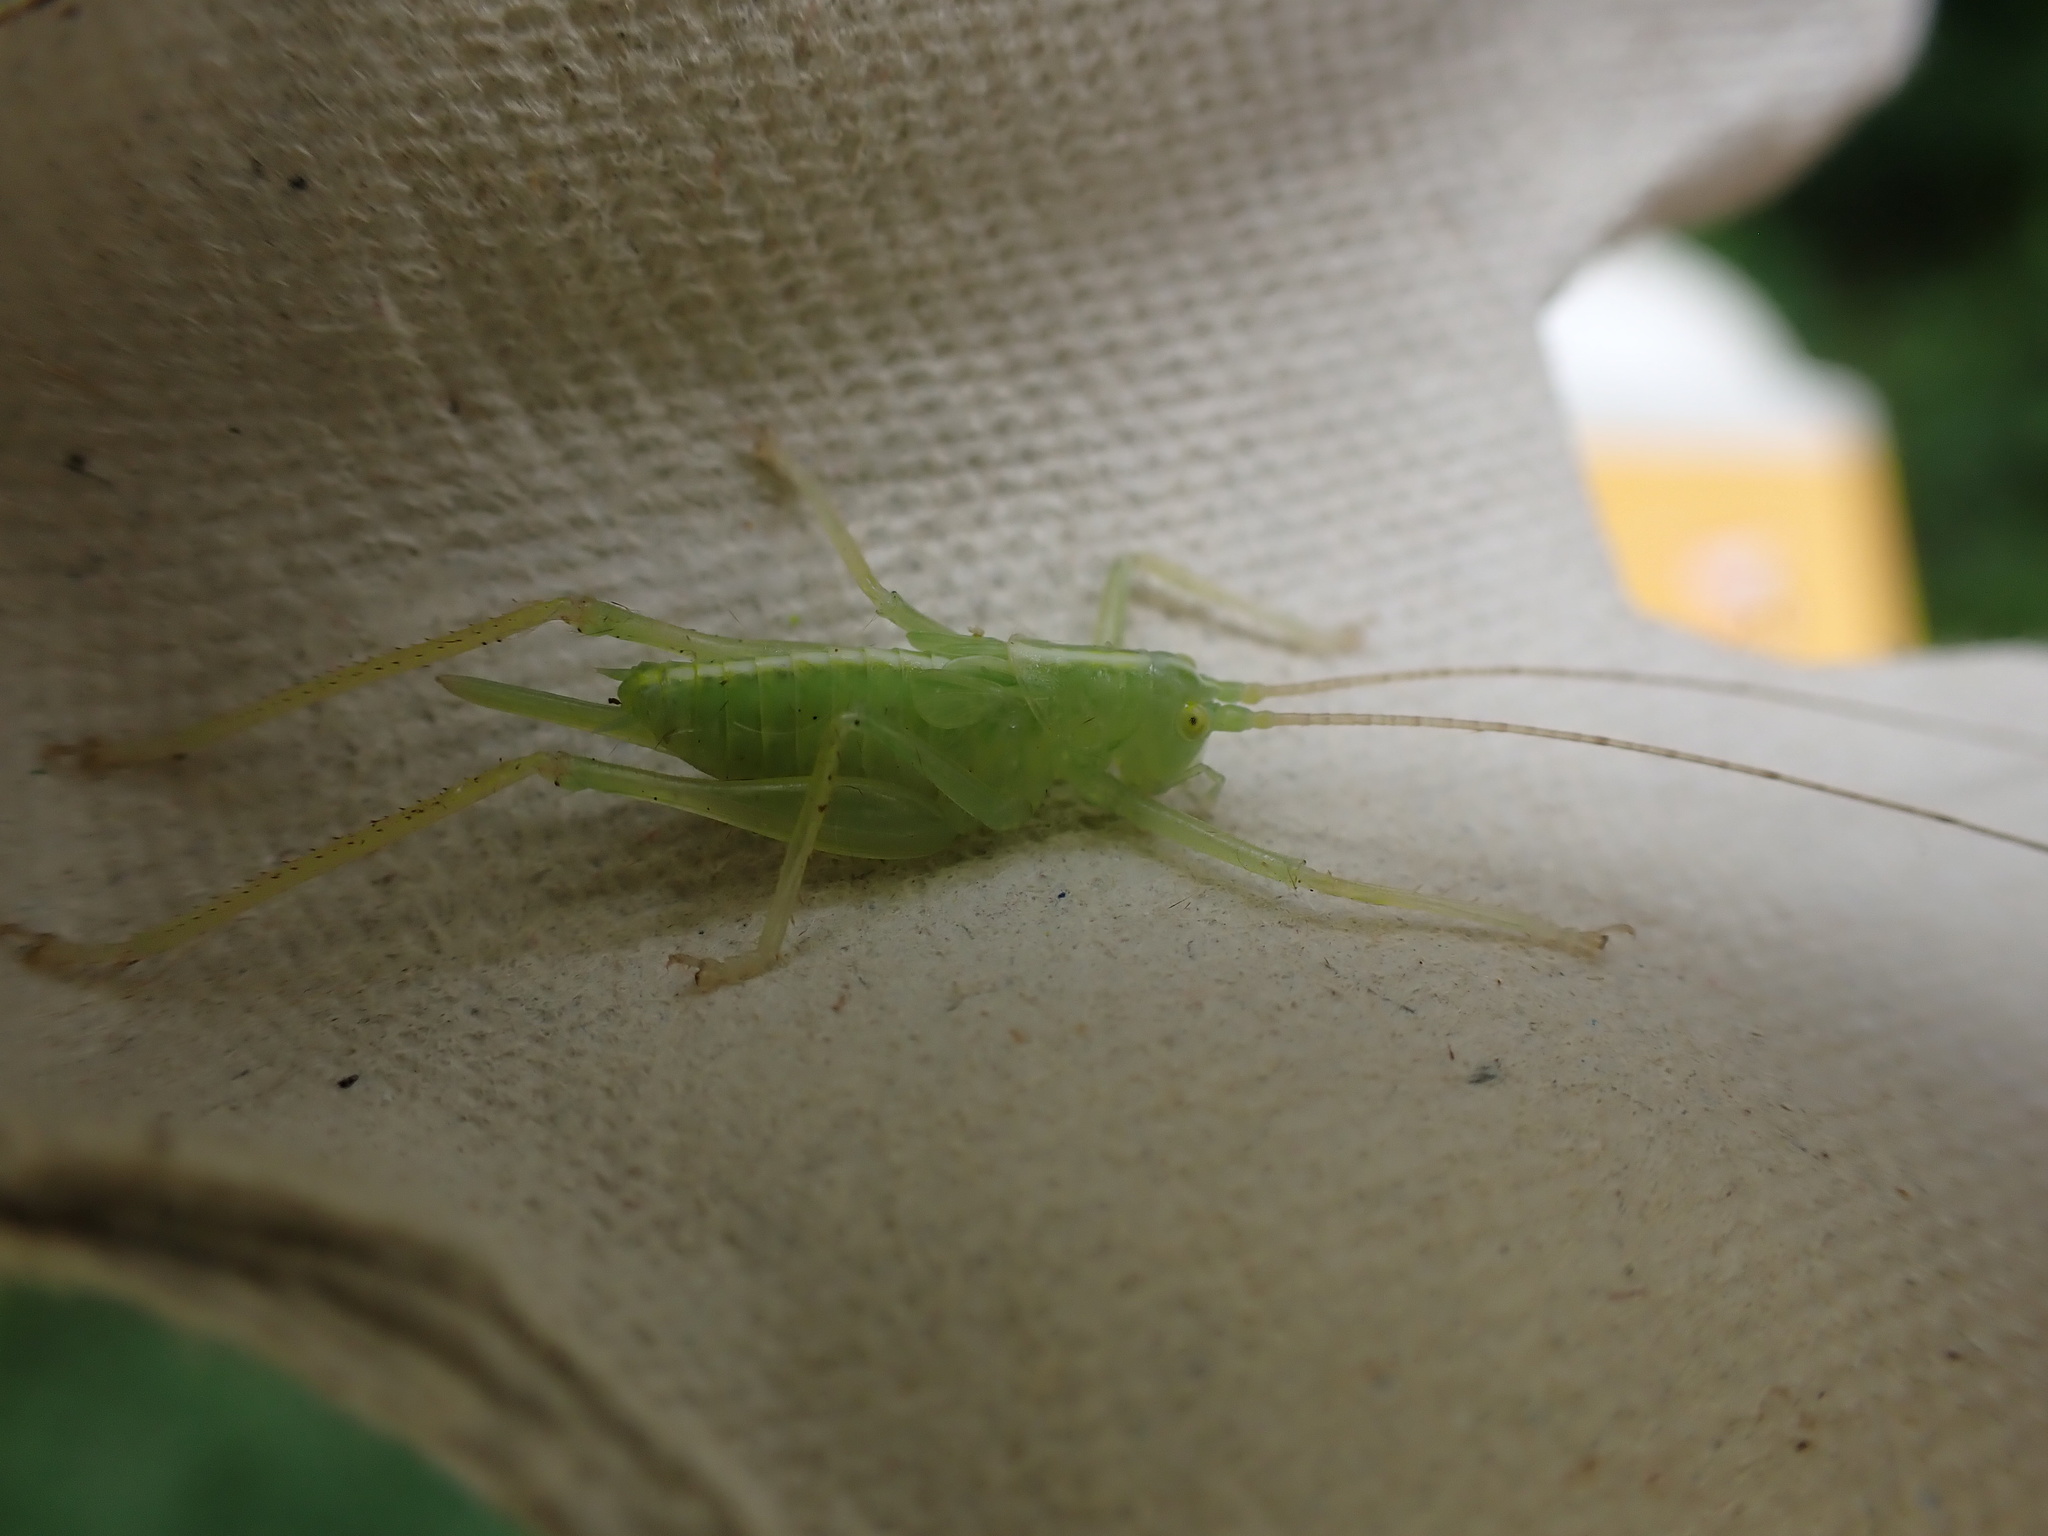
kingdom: Animalia
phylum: Arthropoda
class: Insecta
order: Orthoptera
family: Tettigoniidae
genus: Meconema
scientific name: Meconema thalassinum
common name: Oak bush-cricket
